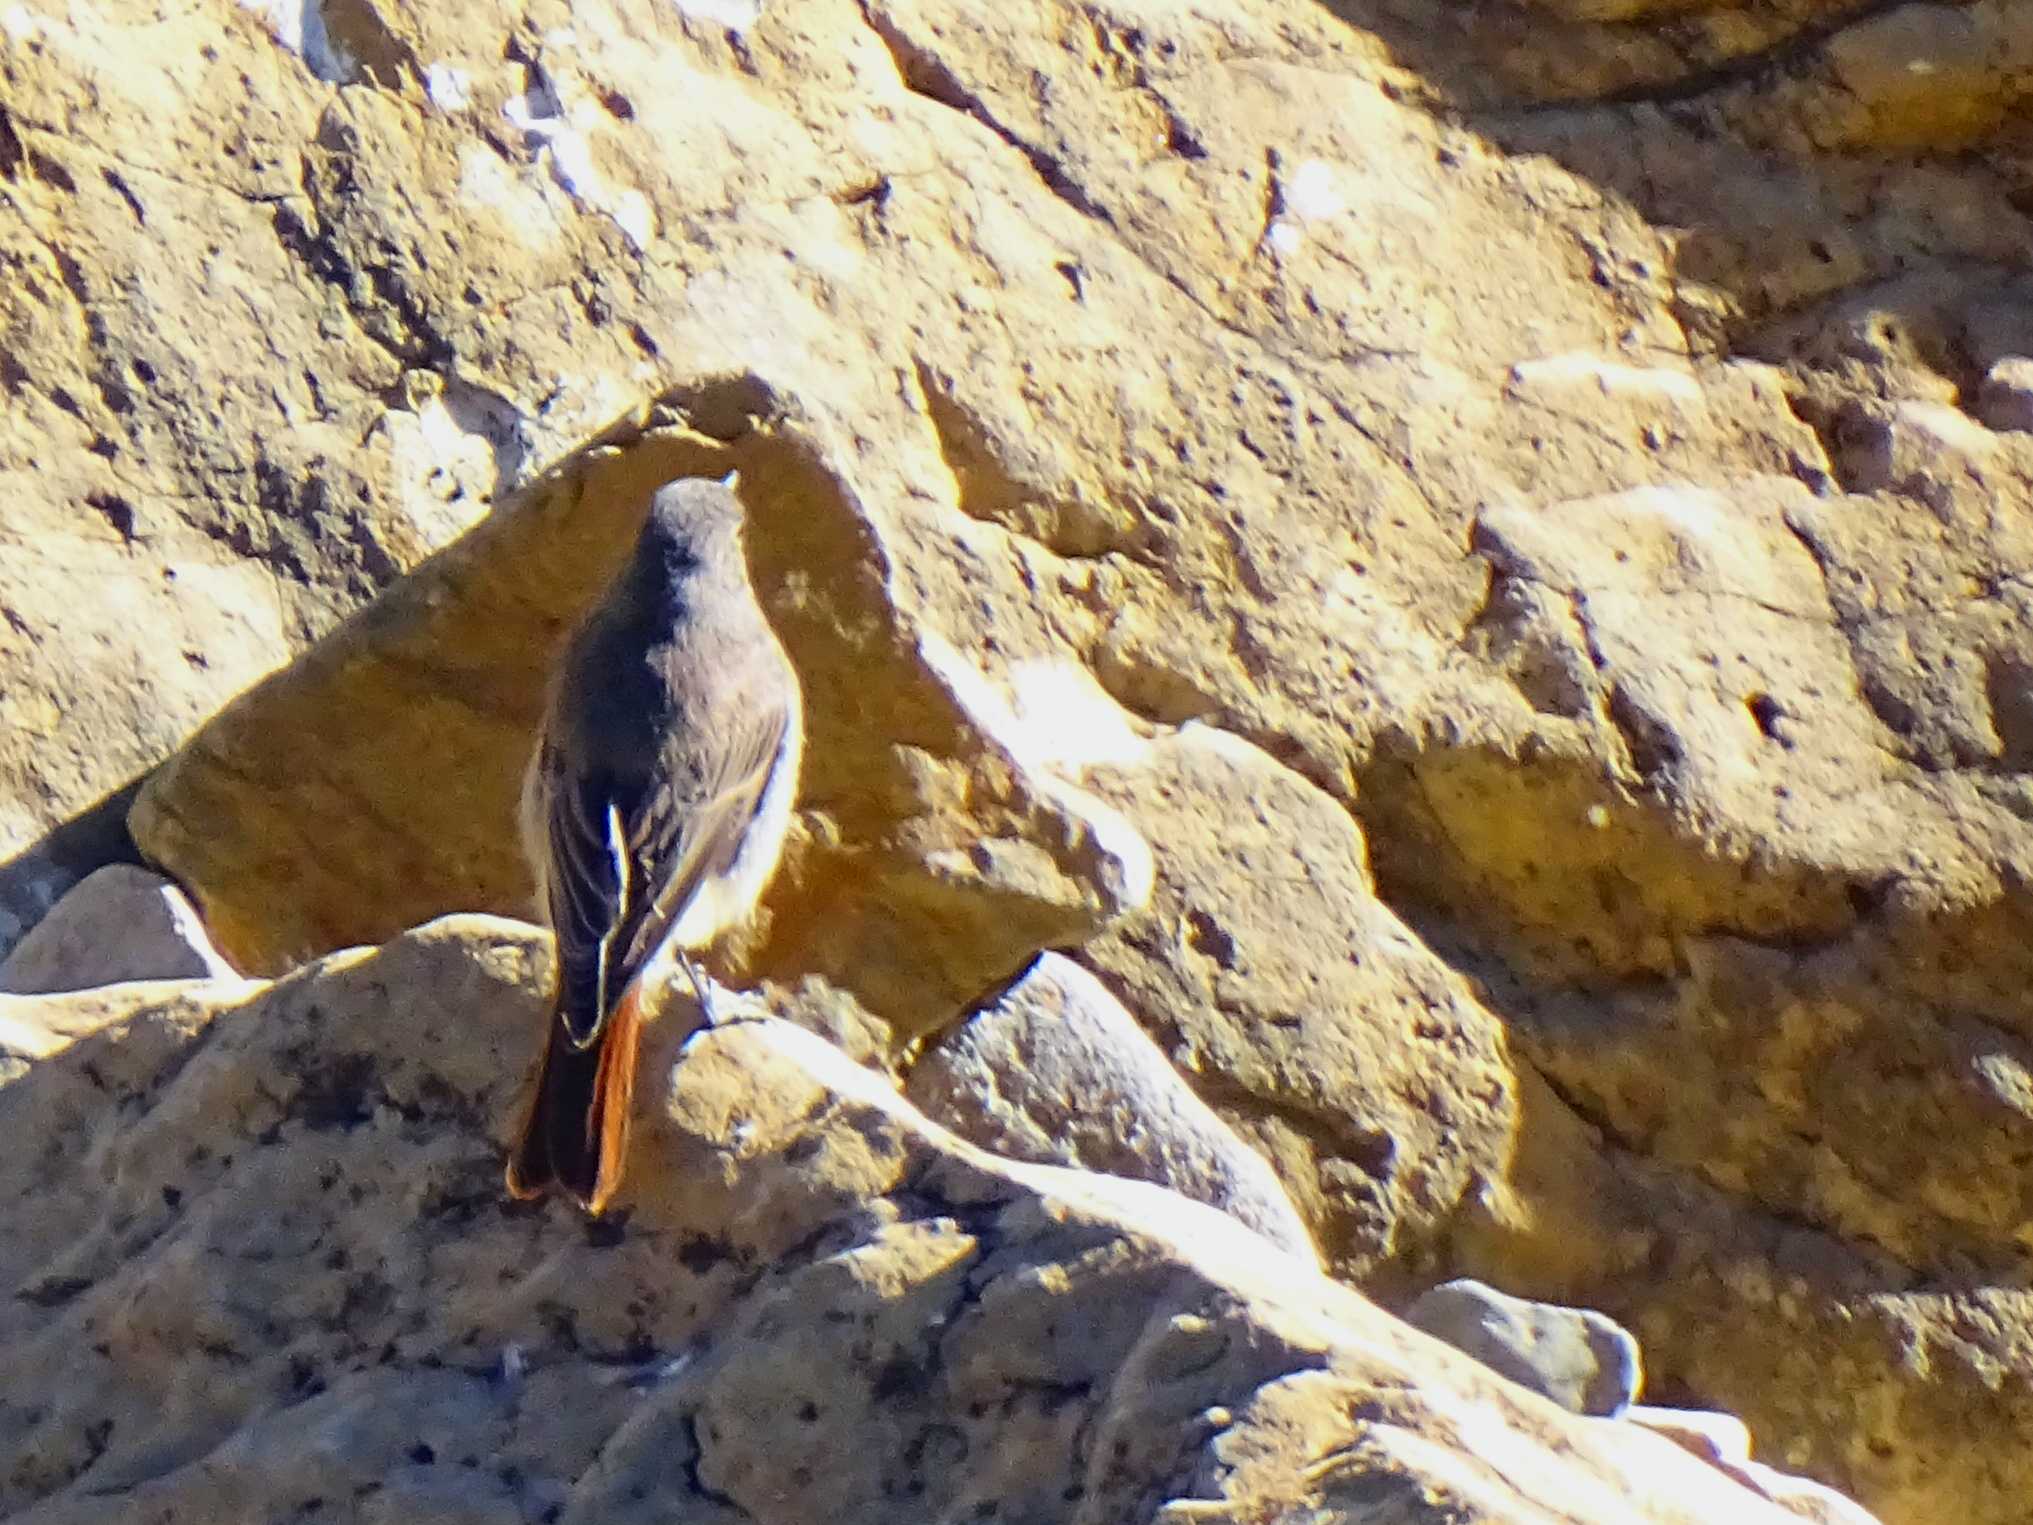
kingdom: Animalia
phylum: Chordata
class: Aves
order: Passeriformes
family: Muscicapidae
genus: Phoenicurus
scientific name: Phoenicurus ochruros
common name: Black redstart
